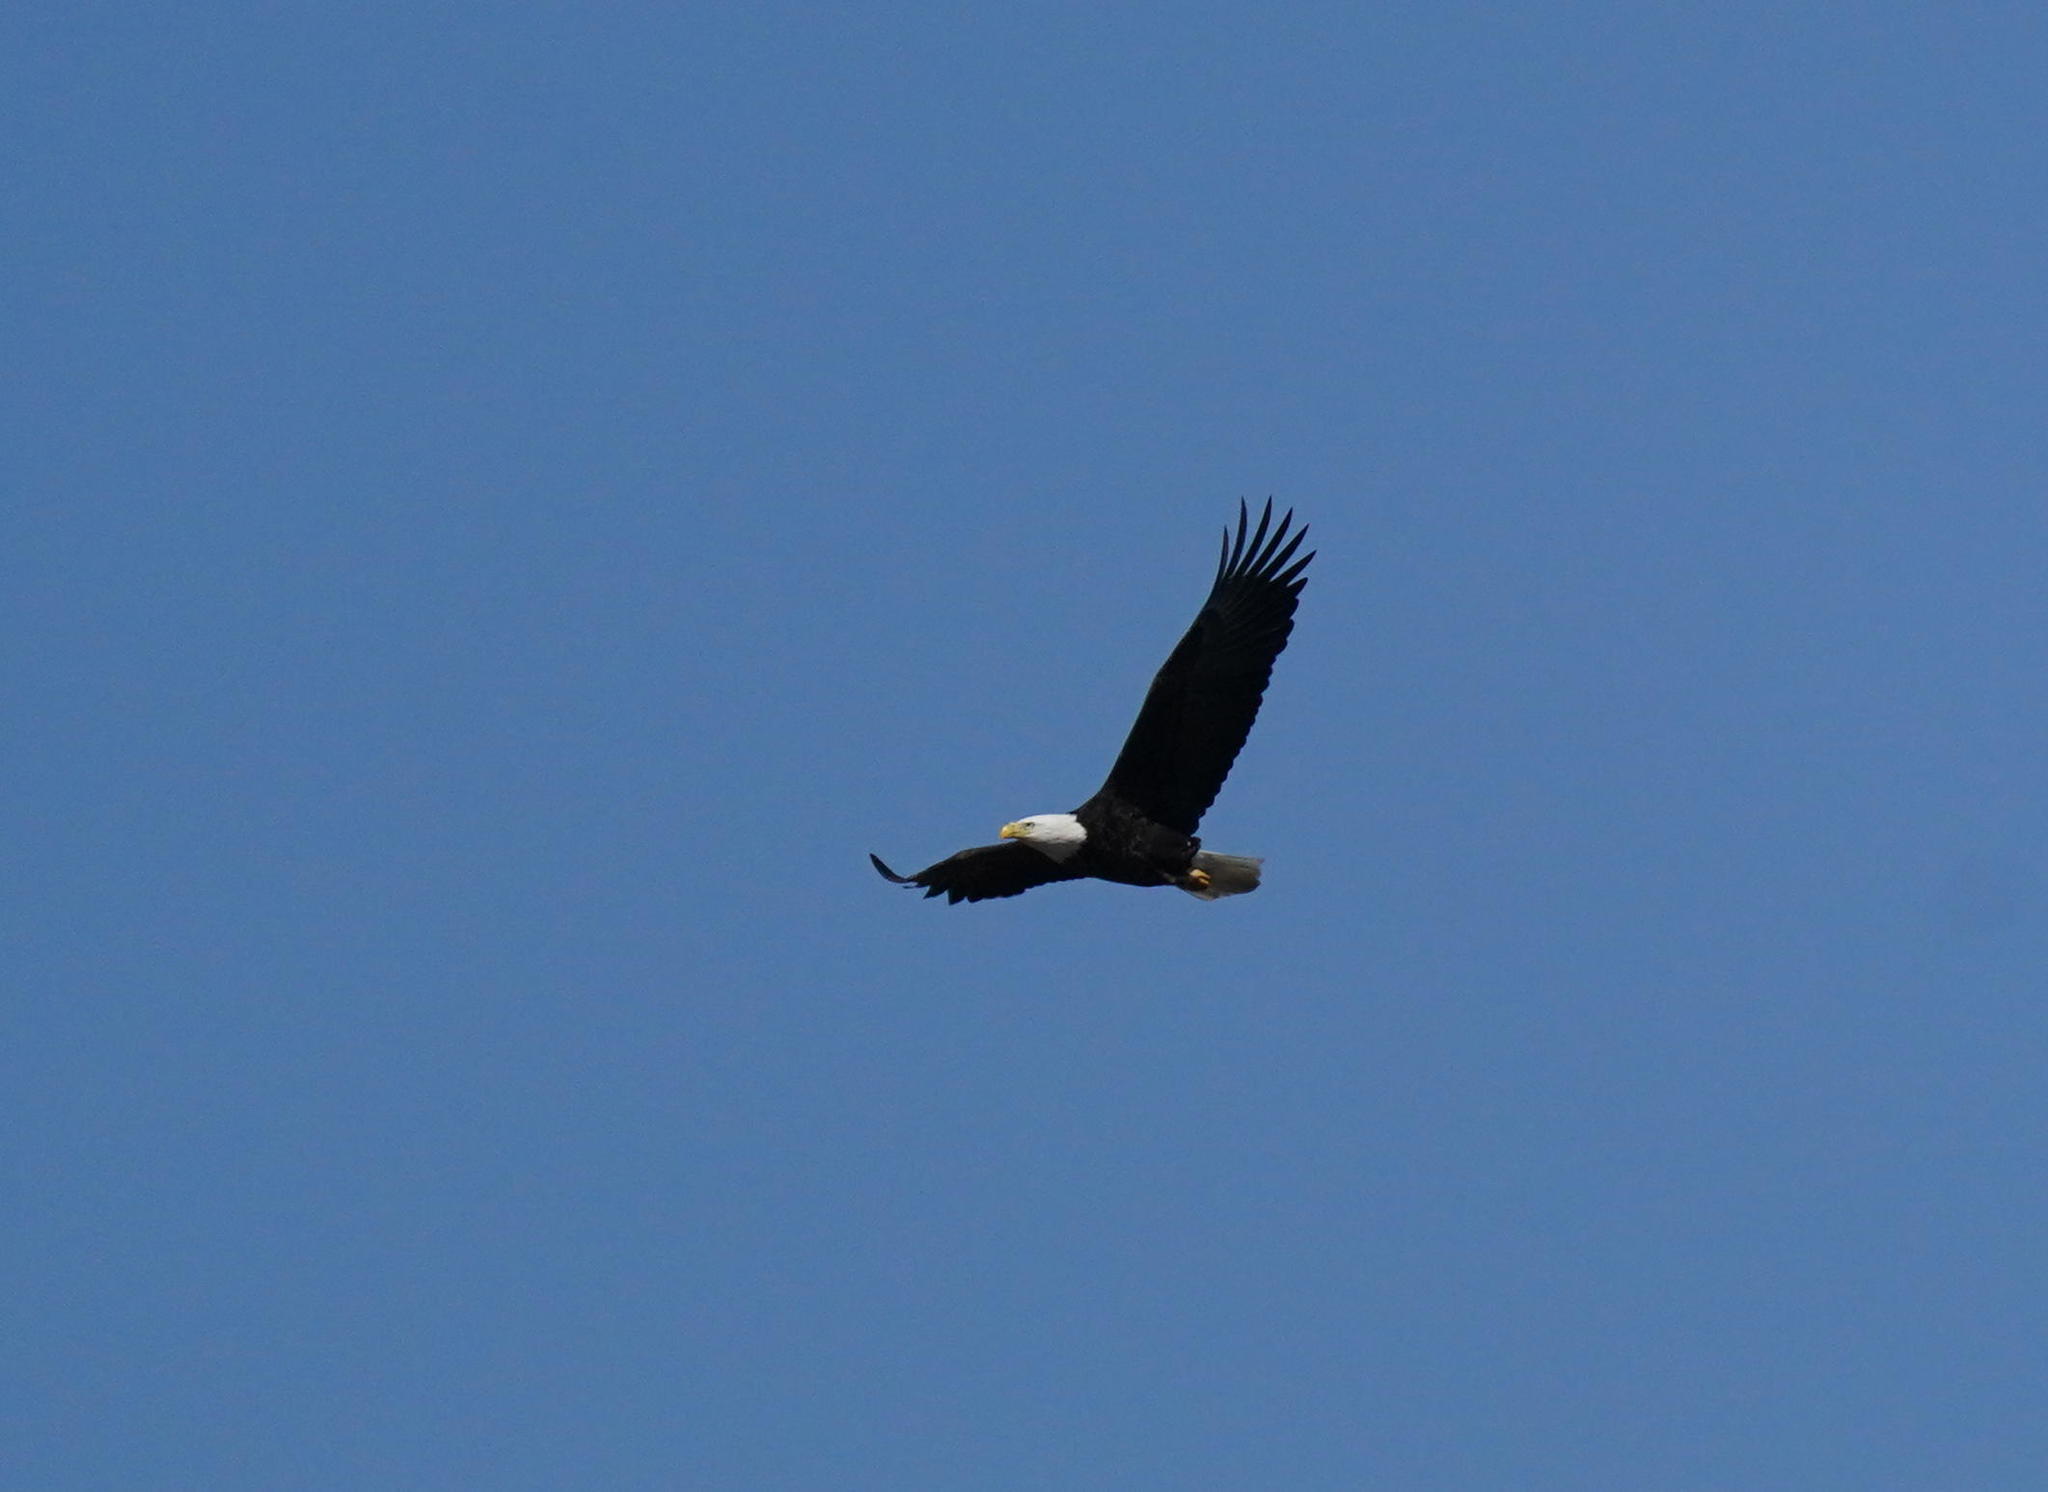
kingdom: Animalia
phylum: Chordata
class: Aves
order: Accipitriformes
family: Accipitridae
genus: Haliaeetus
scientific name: Haliaeetus leucocephalus
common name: Bald eagle
